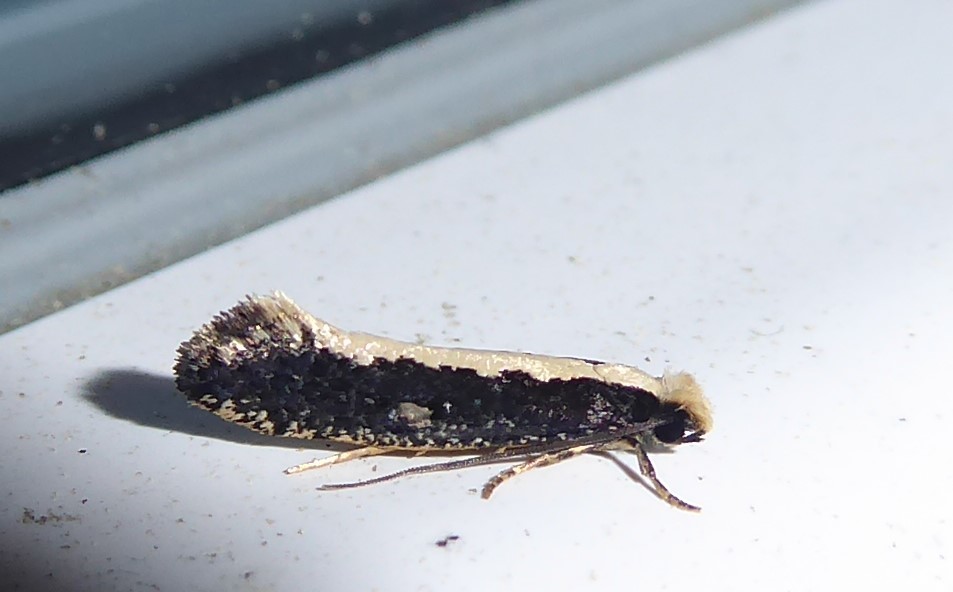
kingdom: Animalia
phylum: Arthropoda
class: Insecta
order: Lepidoptera
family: Tineidae
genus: Monopis
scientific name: Monopis ethelella
